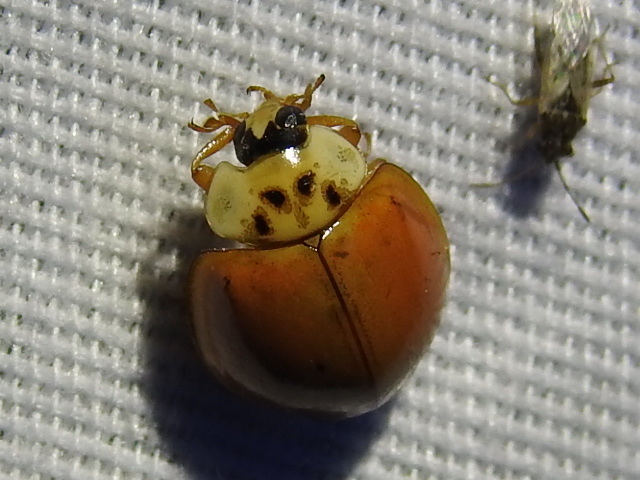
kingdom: Animalia
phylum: Arthropoda
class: Insecta
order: Coleoptera
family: Coccinellidae
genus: Harmonia
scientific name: Harmonia axyridis
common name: Harlequin ladybird
